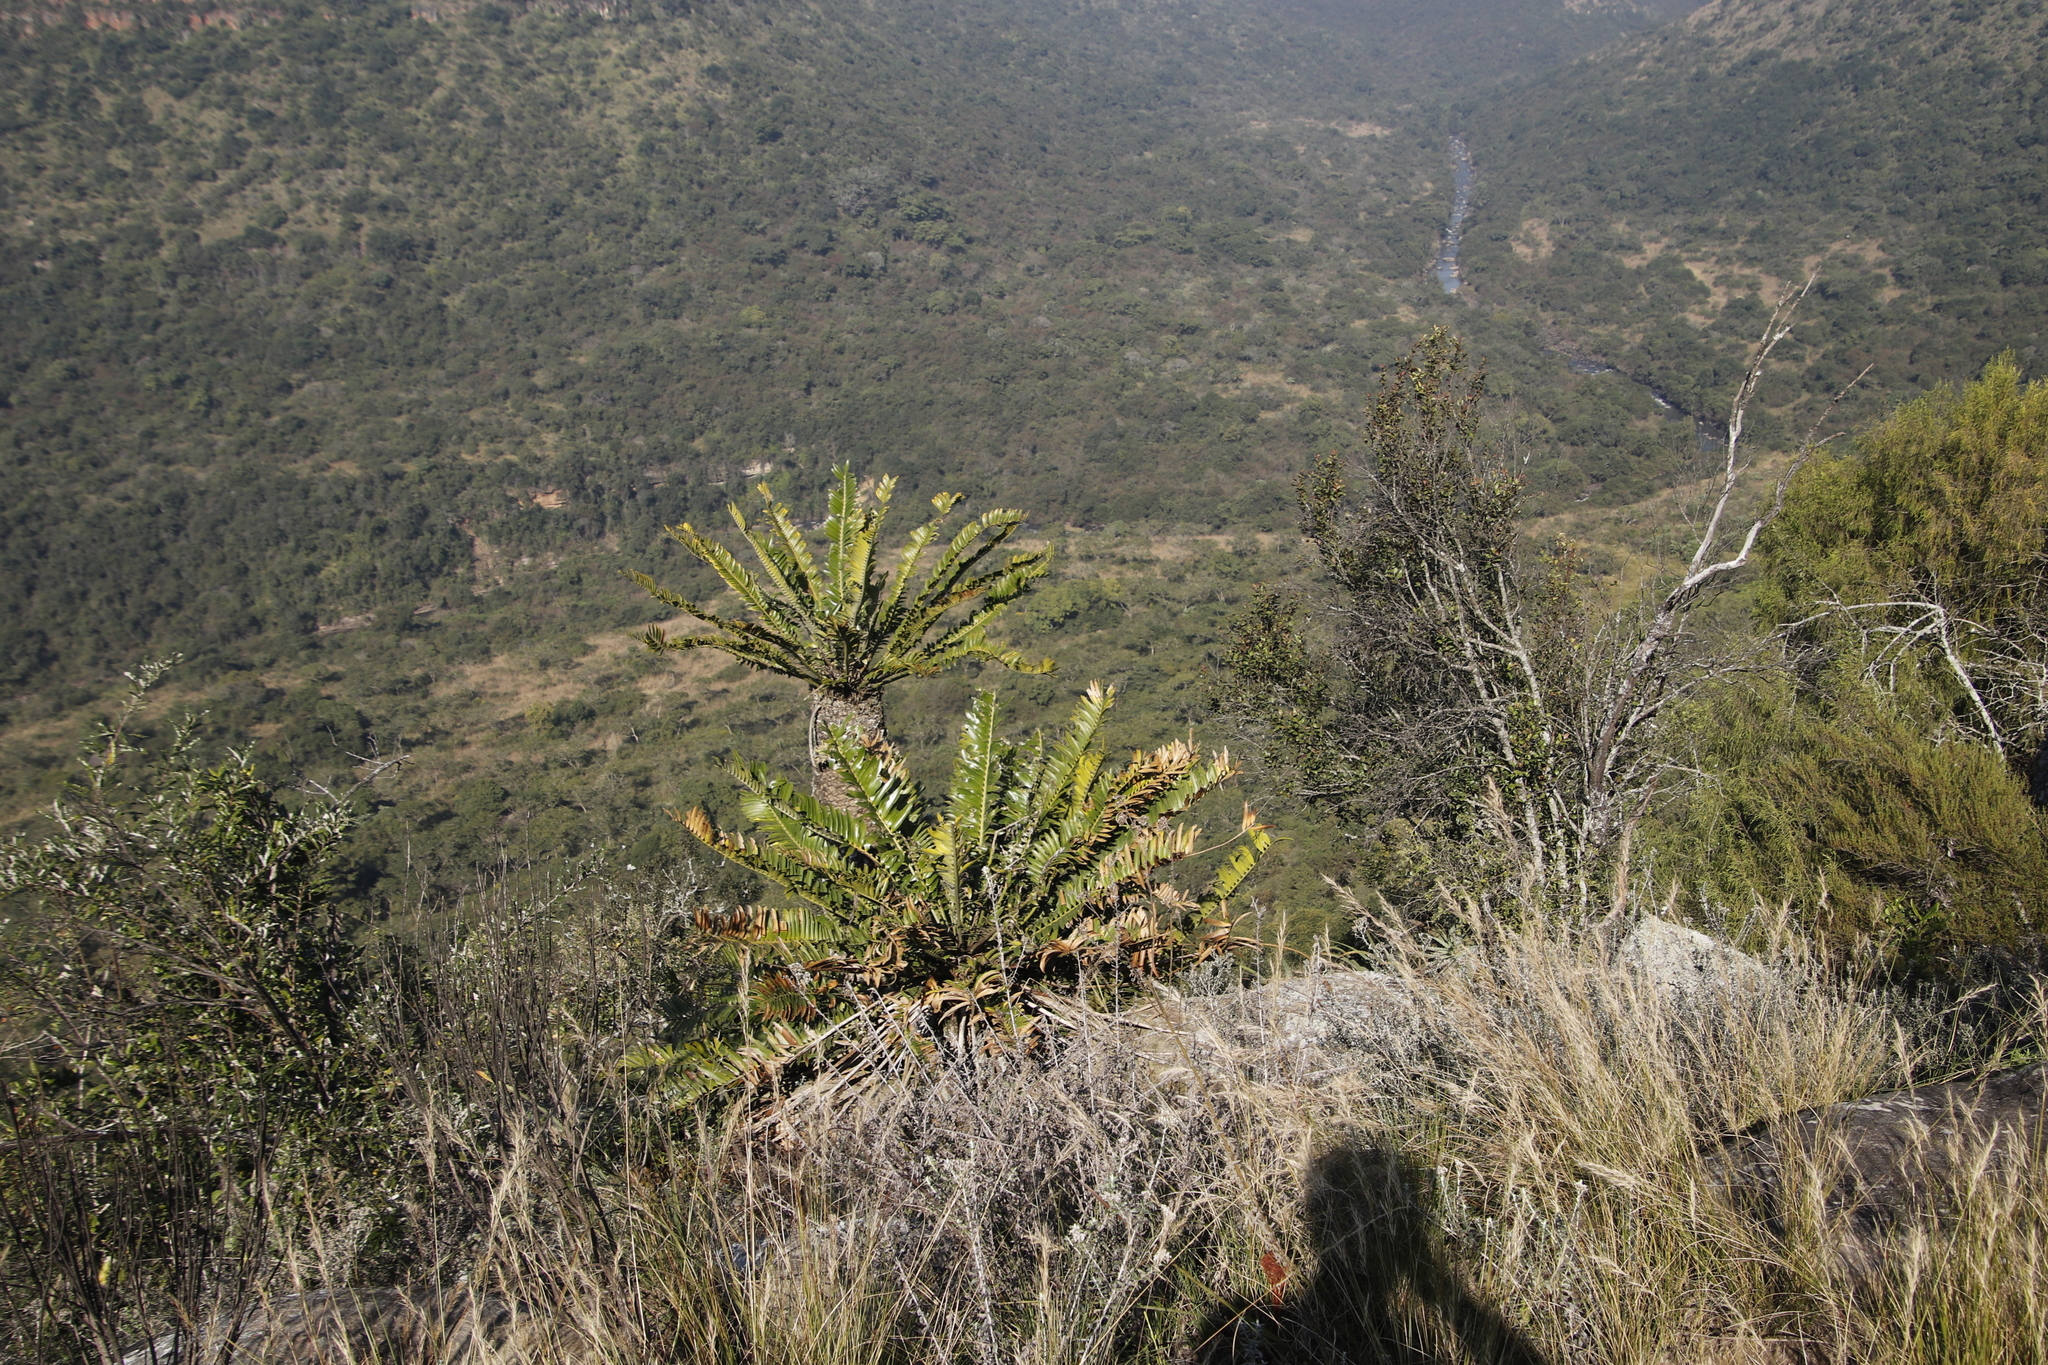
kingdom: Plantae
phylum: Tracheophyta
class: Cycadopsida
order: Cycadales
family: Zamiaceae
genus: Encephalartos
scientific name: Encephalartos natalensis
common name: Natal cycad
